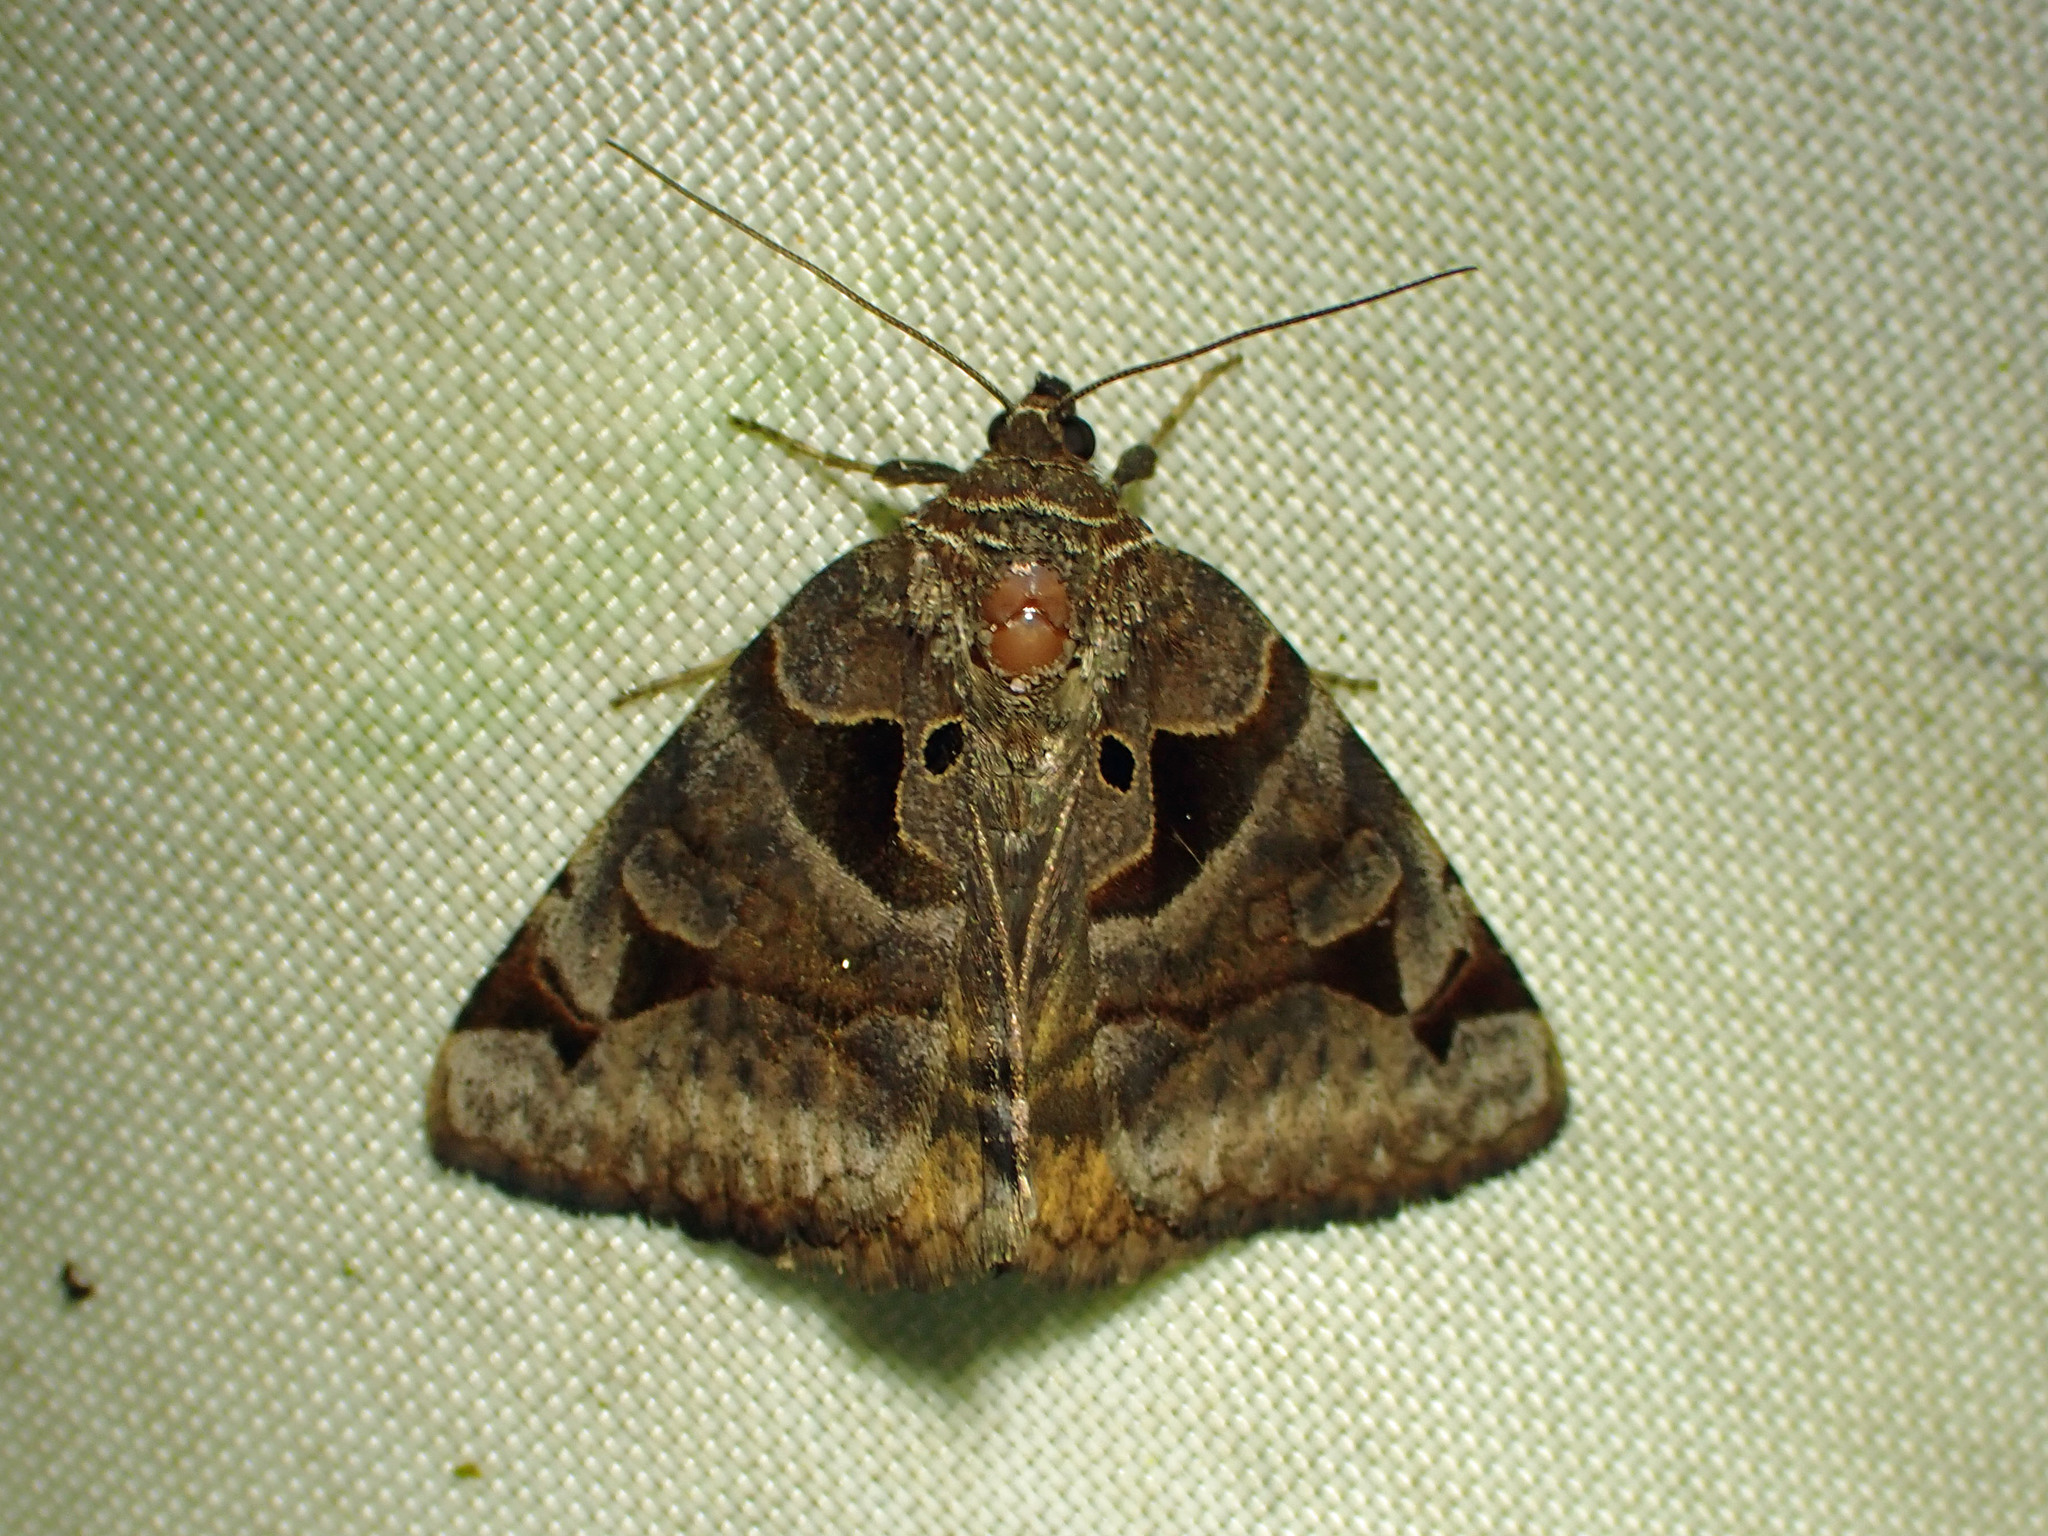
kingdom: Animalia
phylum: Arthropoda
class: Insecta
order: Lepidoptera
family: Erebidae
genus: Euclidia
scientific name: Euclidia cuspidea
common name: Toothed somberwing
